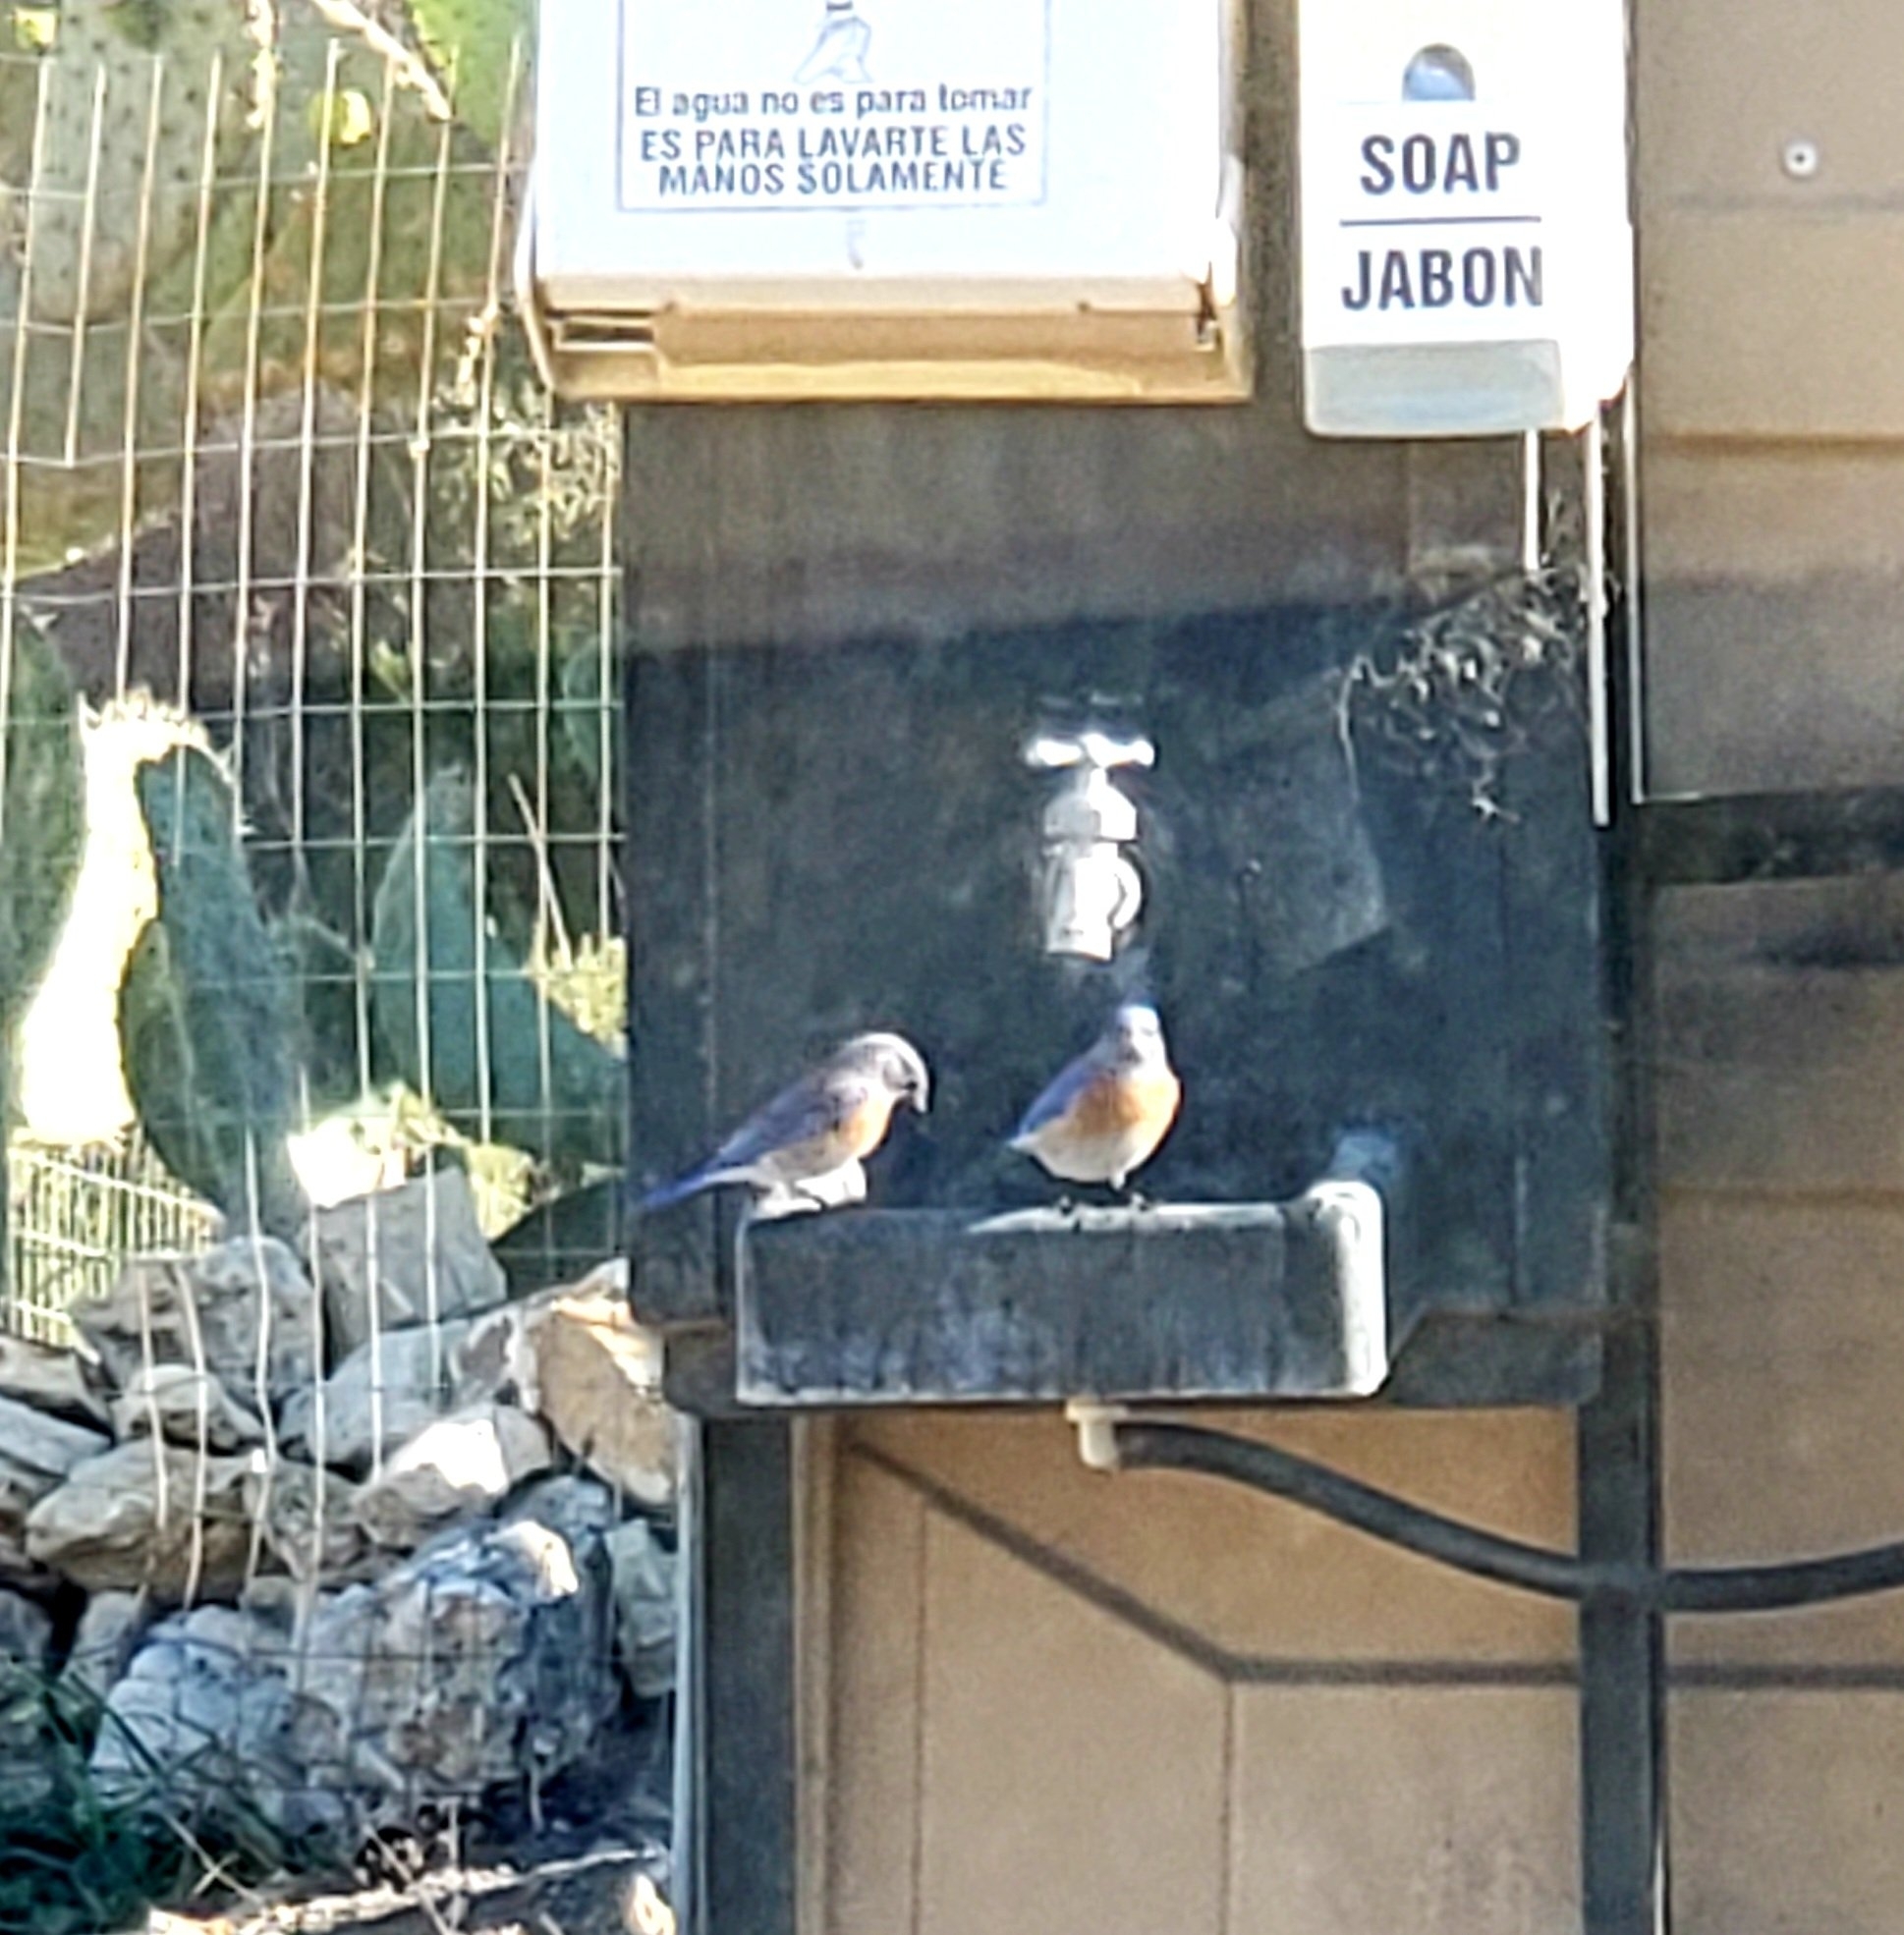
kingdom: Animalia
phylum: Chordata
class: Aves
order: Passeriformes
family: Turdidae
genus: Sialia
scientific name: Sialia mexicana
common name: Western bluebird
